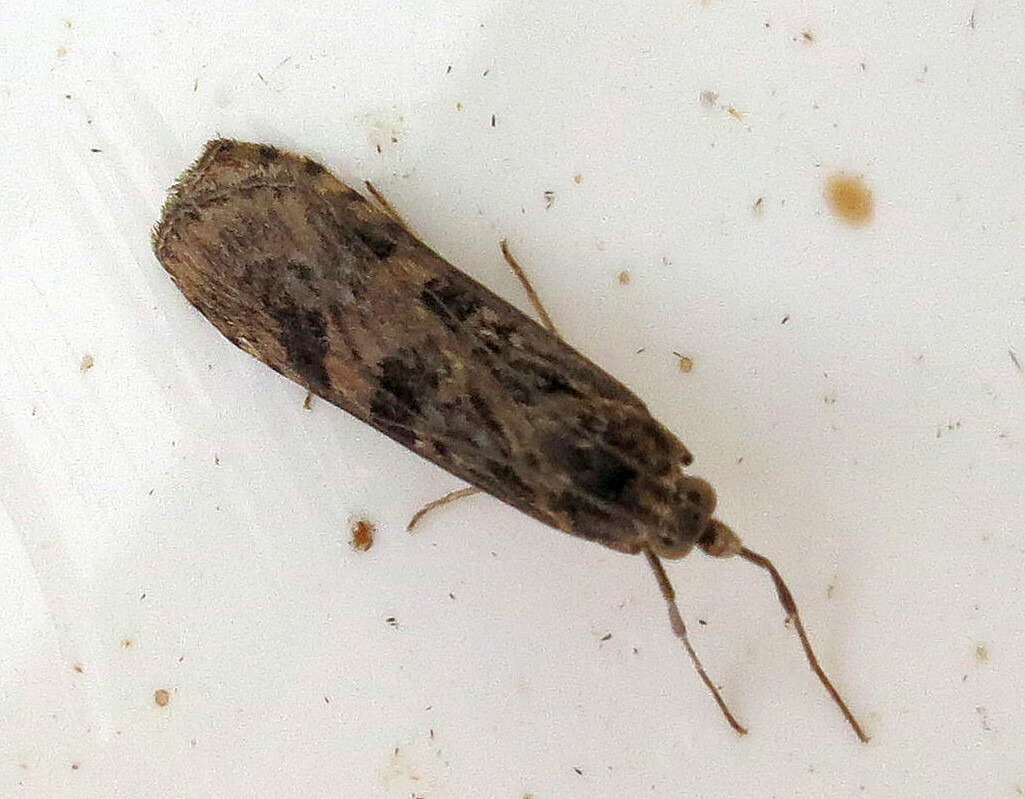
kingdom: Animalia
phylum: Arthropoda
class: Insecta
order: Lepidoptera
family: Crambidae
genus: Nomophila
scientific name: Nomophila noctuella
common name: Rush veneer
